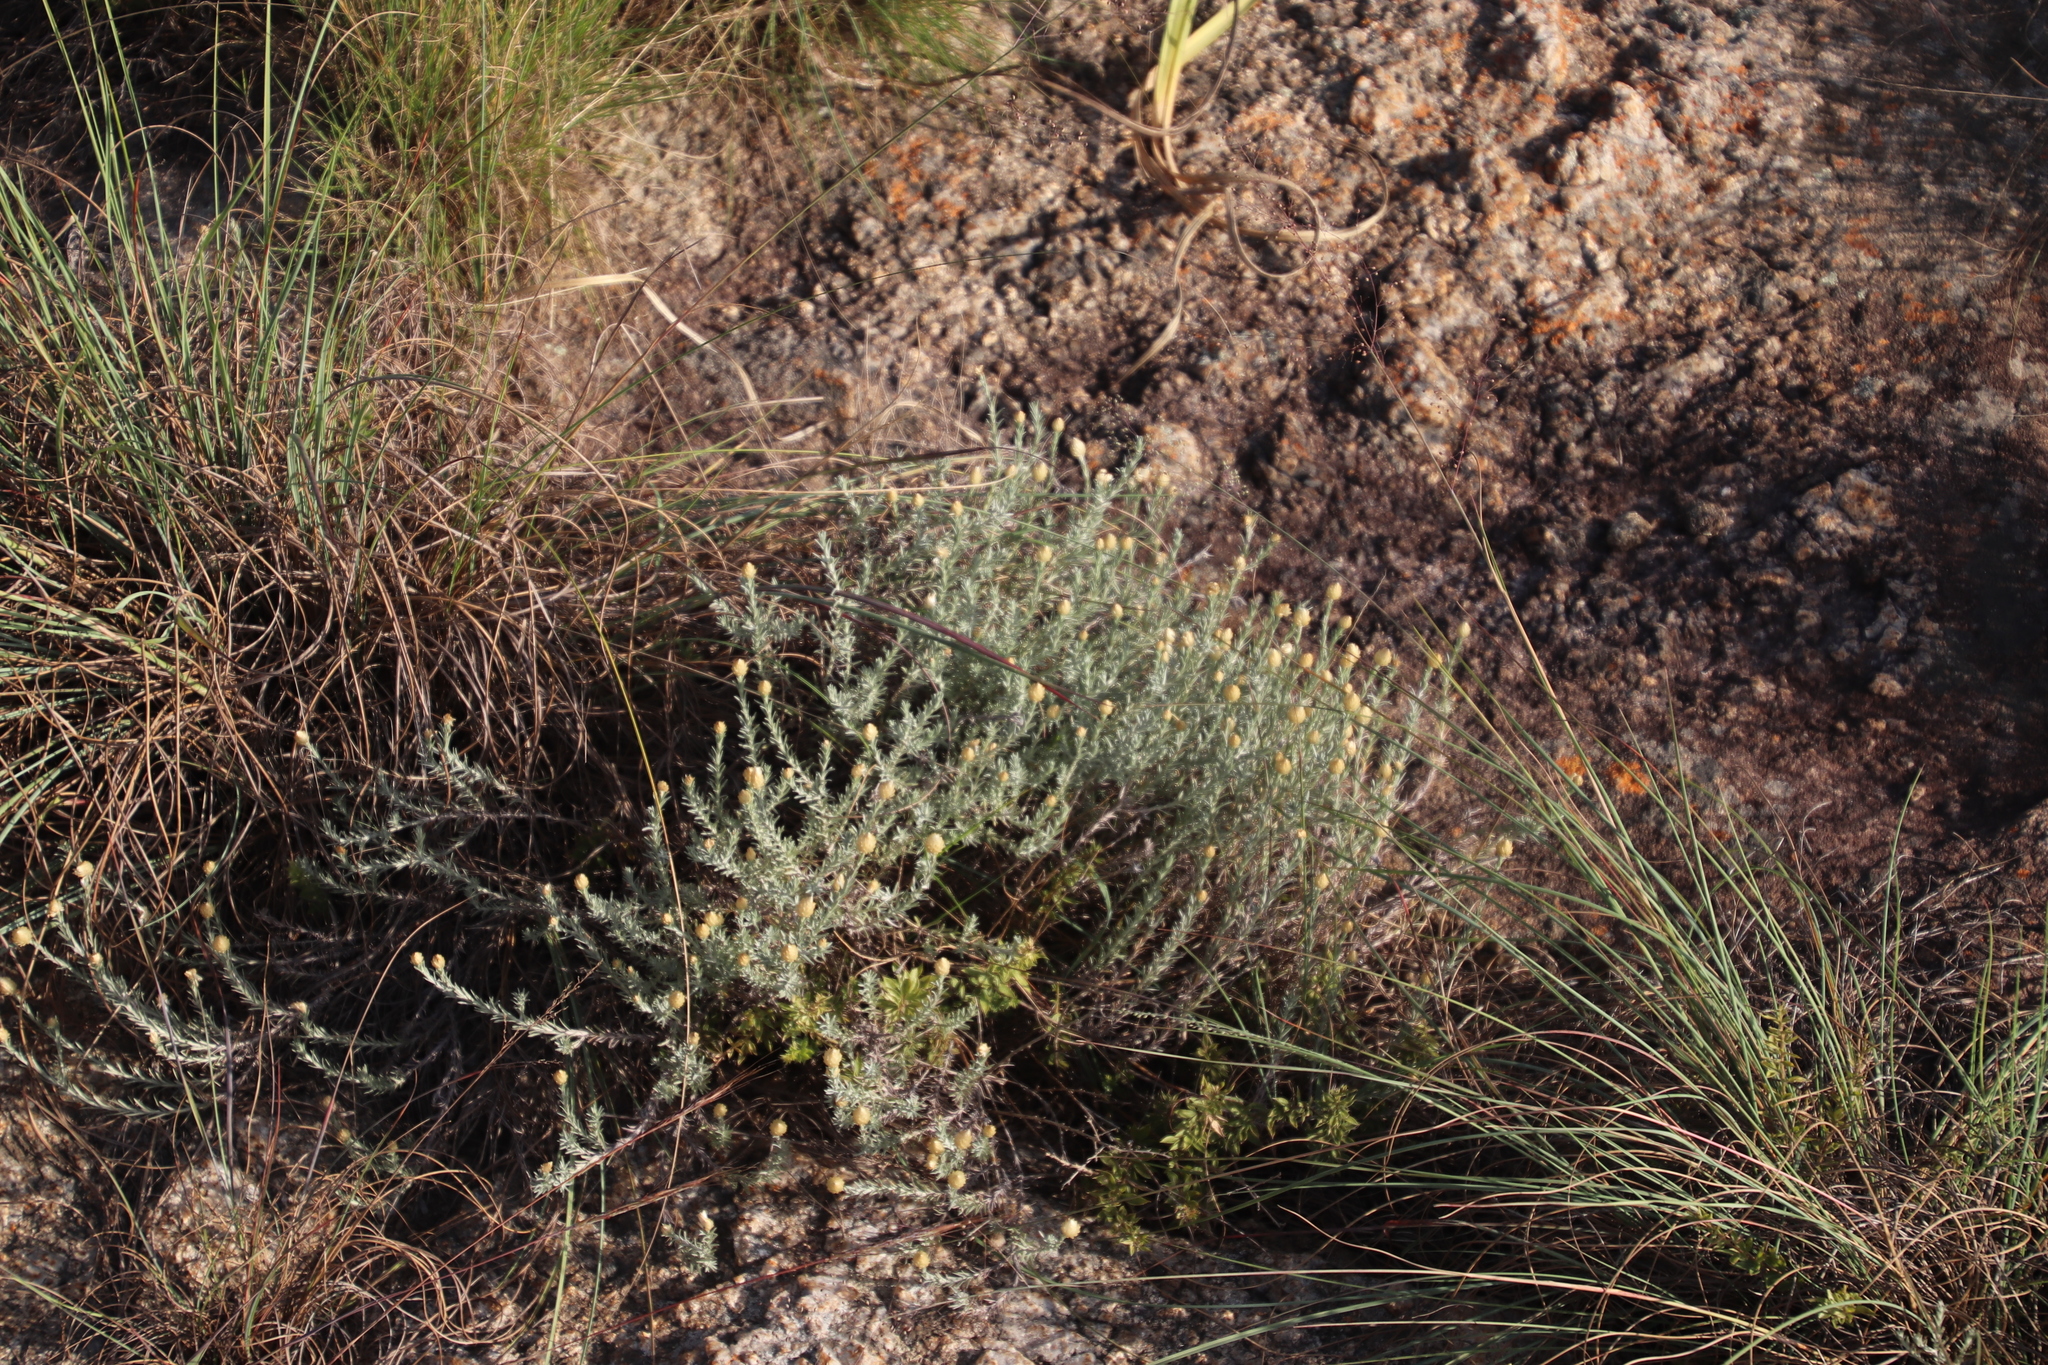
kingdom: Plantae
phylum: Tracheophyta
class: Magnoliopsida
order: Asterales
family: Asteraceae
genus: Helichrysum
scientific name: Helichrysum reflexum
